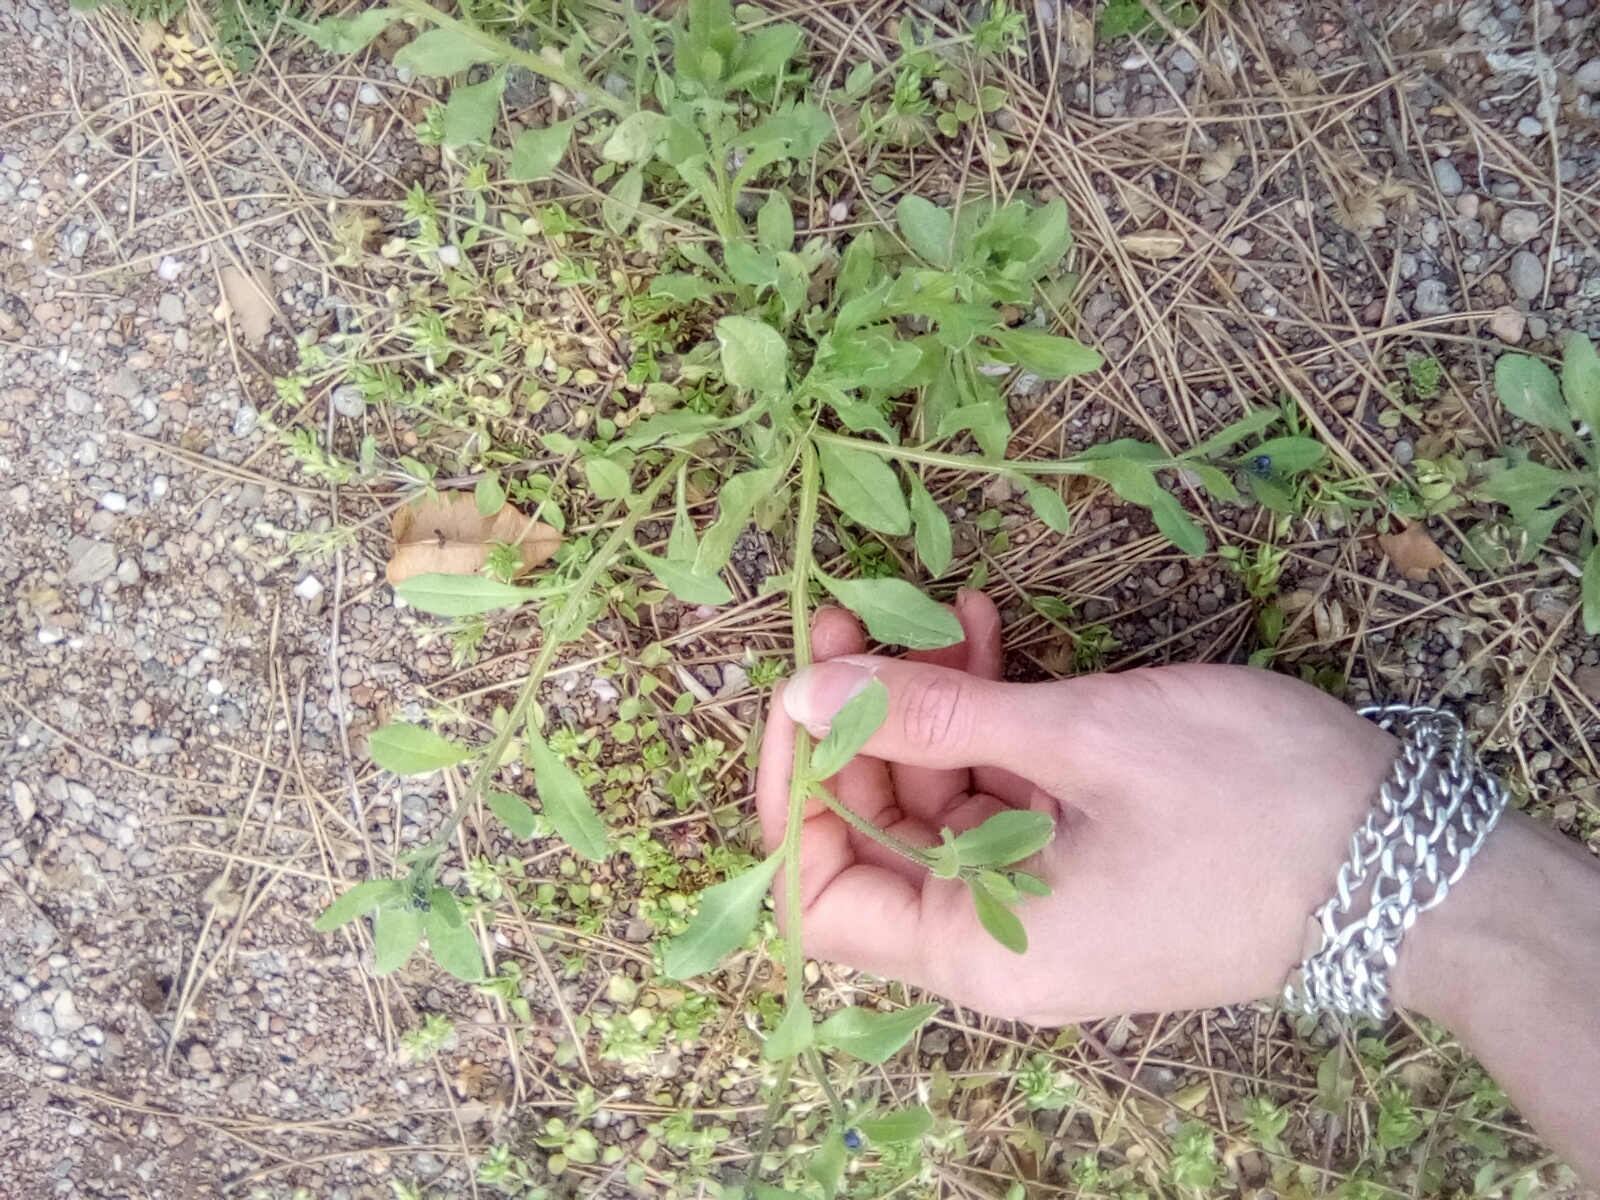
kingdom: Plantae
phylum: Tracheophyta
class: Magnoliopsida
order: Boraginales
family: Boraginaceae
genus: Asperugo
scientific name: Asperugo procumbens
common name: Madwort
